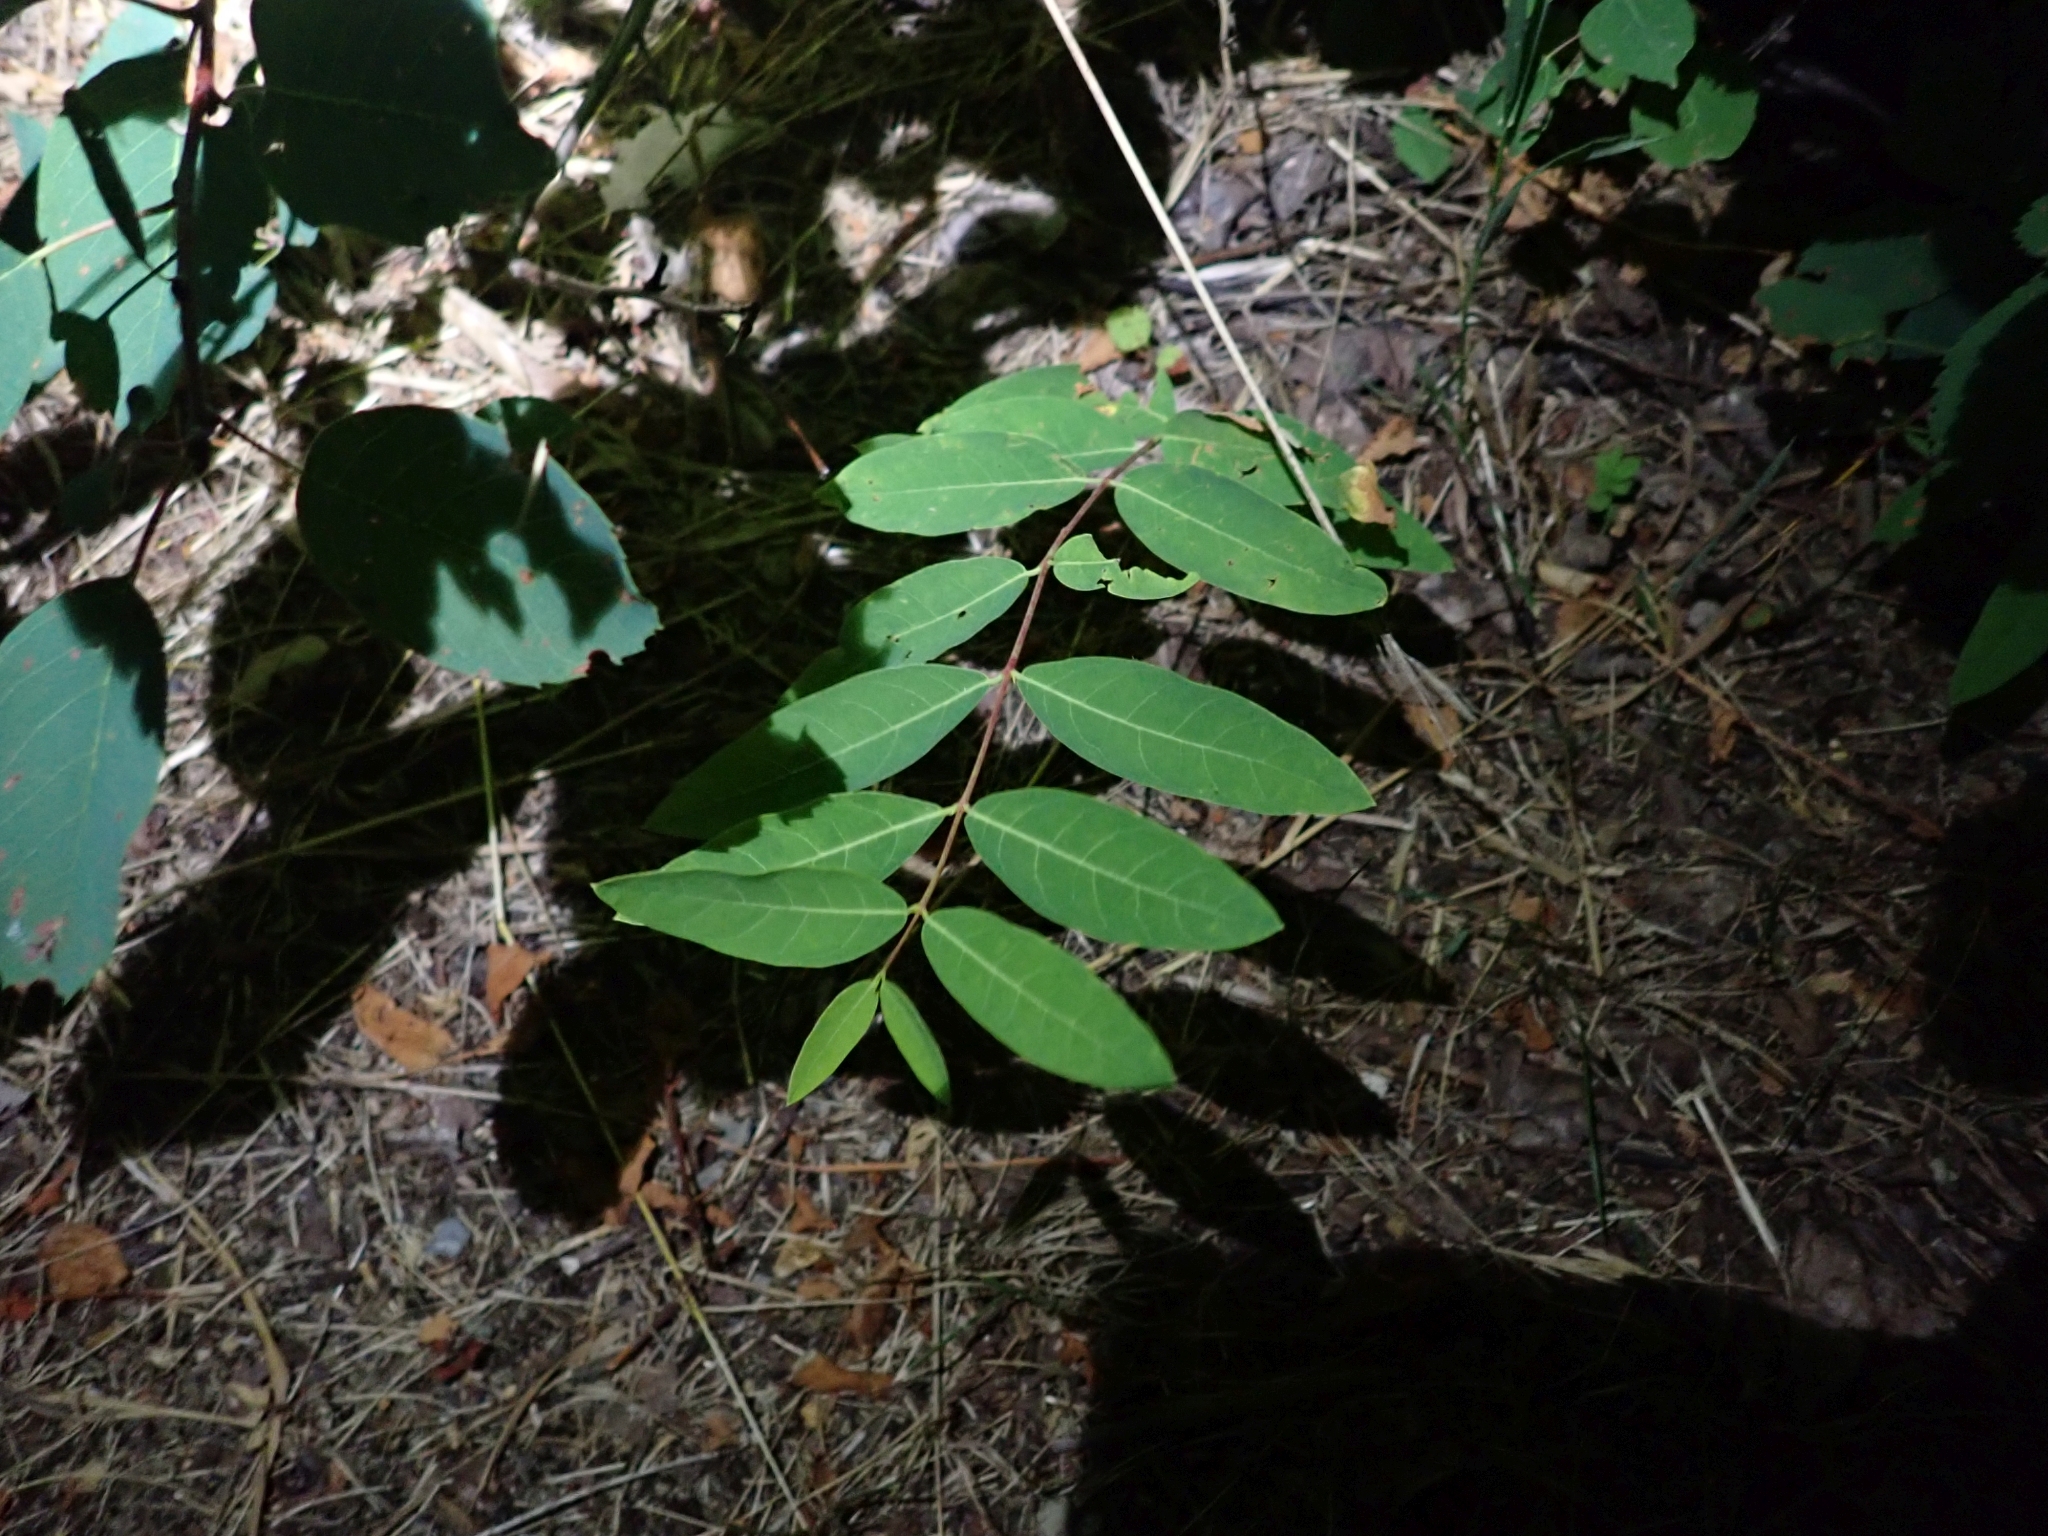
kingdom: Plantae
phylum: Tracheophyta
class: Magnoliopsida
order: Gentianales
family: Apocynaceae
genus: Apocynum
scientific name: Apocynum androsaemifolium
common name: Spreading dogbane
